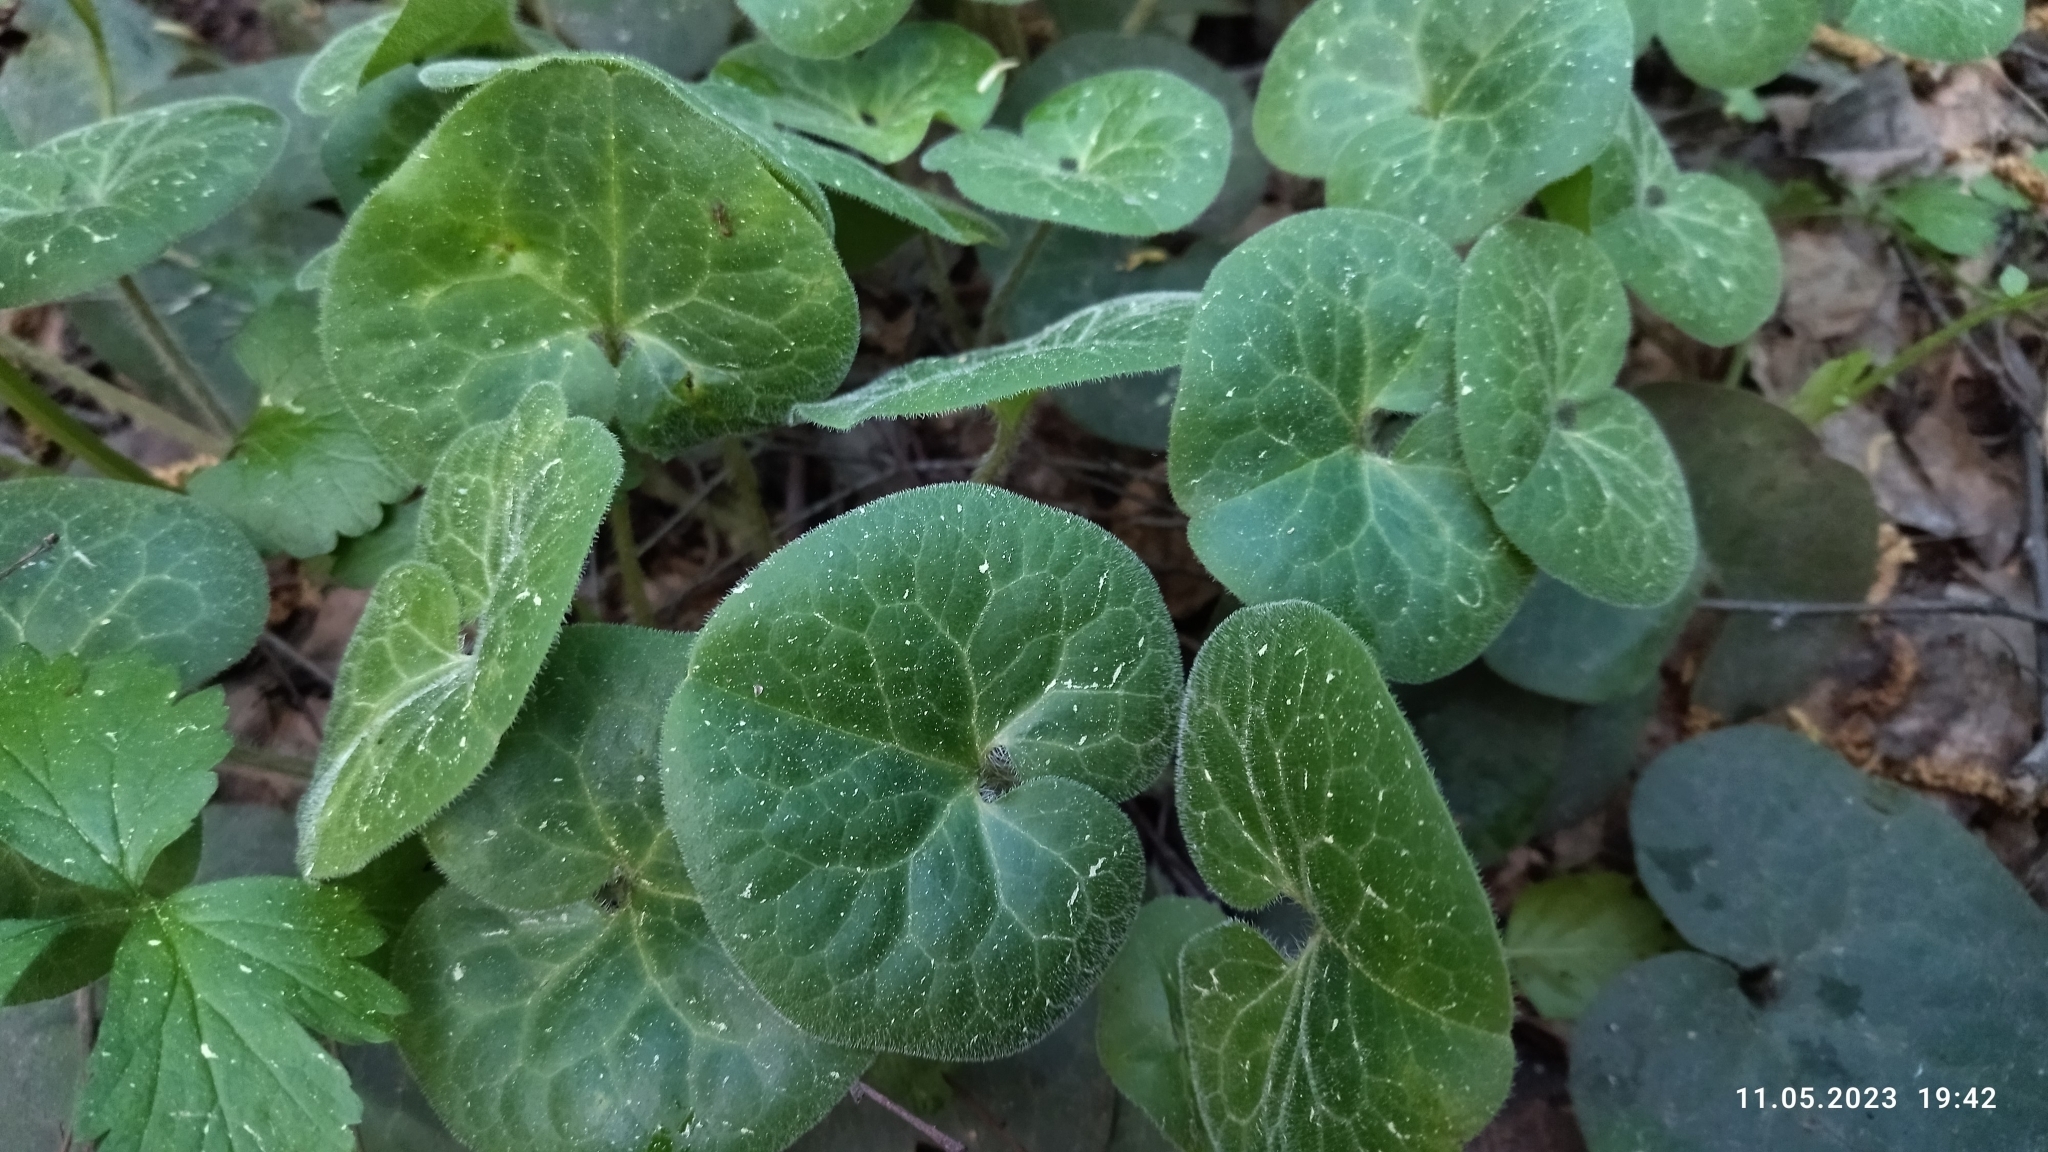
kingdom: Plantae
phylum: Tracheophyta
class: Magnoliopsida
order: Piperales
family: Aristolochiaceae
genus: Asarum
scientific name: Asarum europaeum
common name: Asarabacca
